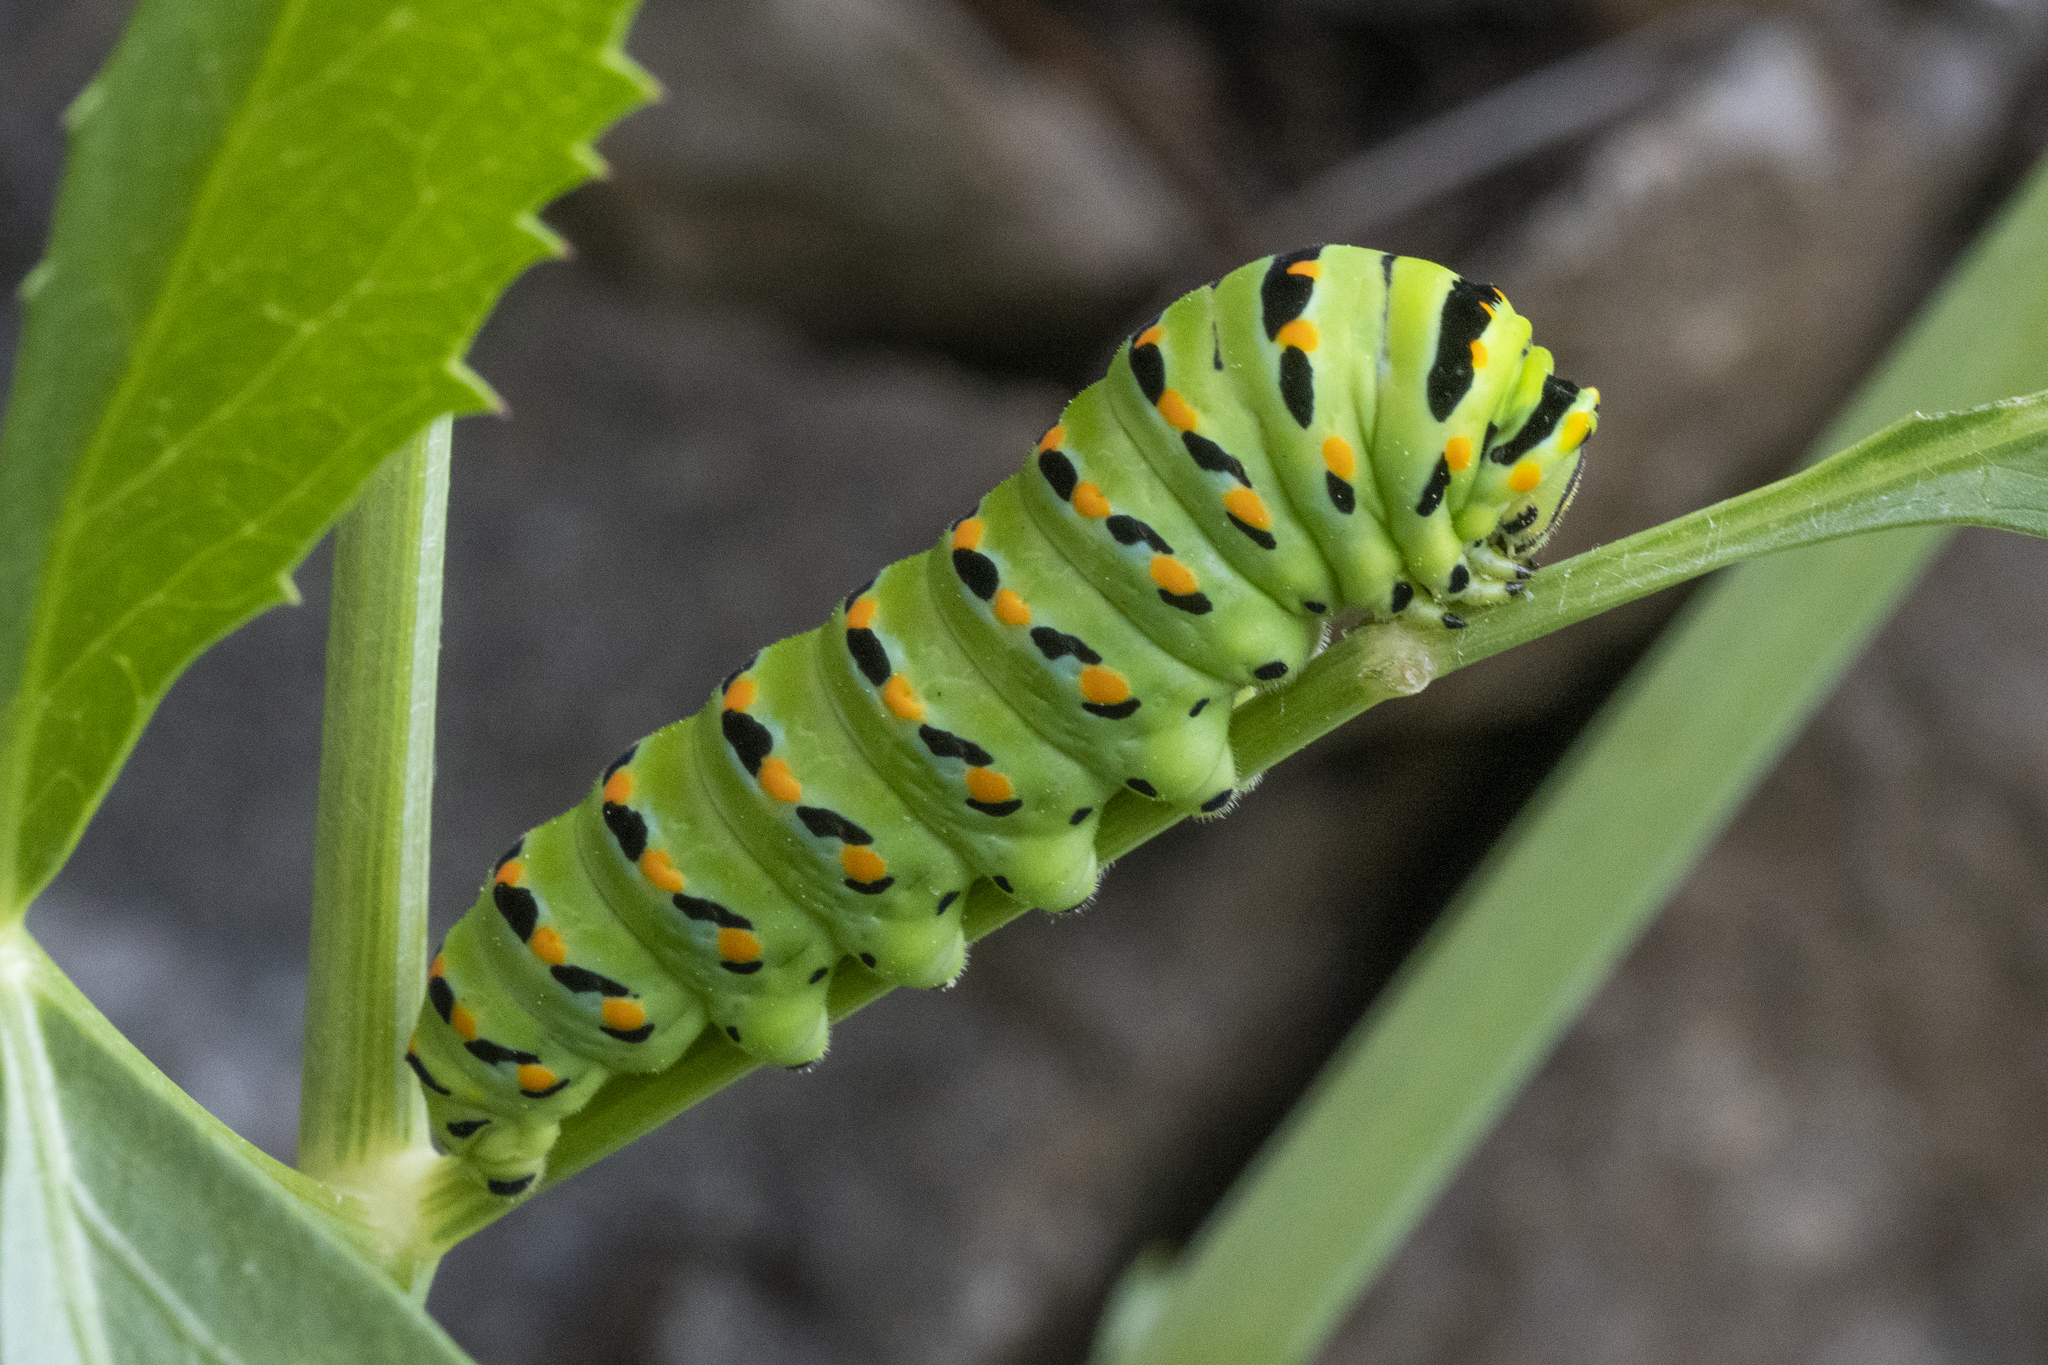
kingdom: Animalia
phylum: Arthropoda
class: Insecta
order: Lepidoptera
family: Papilionidae
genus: Papilio
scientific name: Papilio zelicaon
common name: Anise swallowtail
